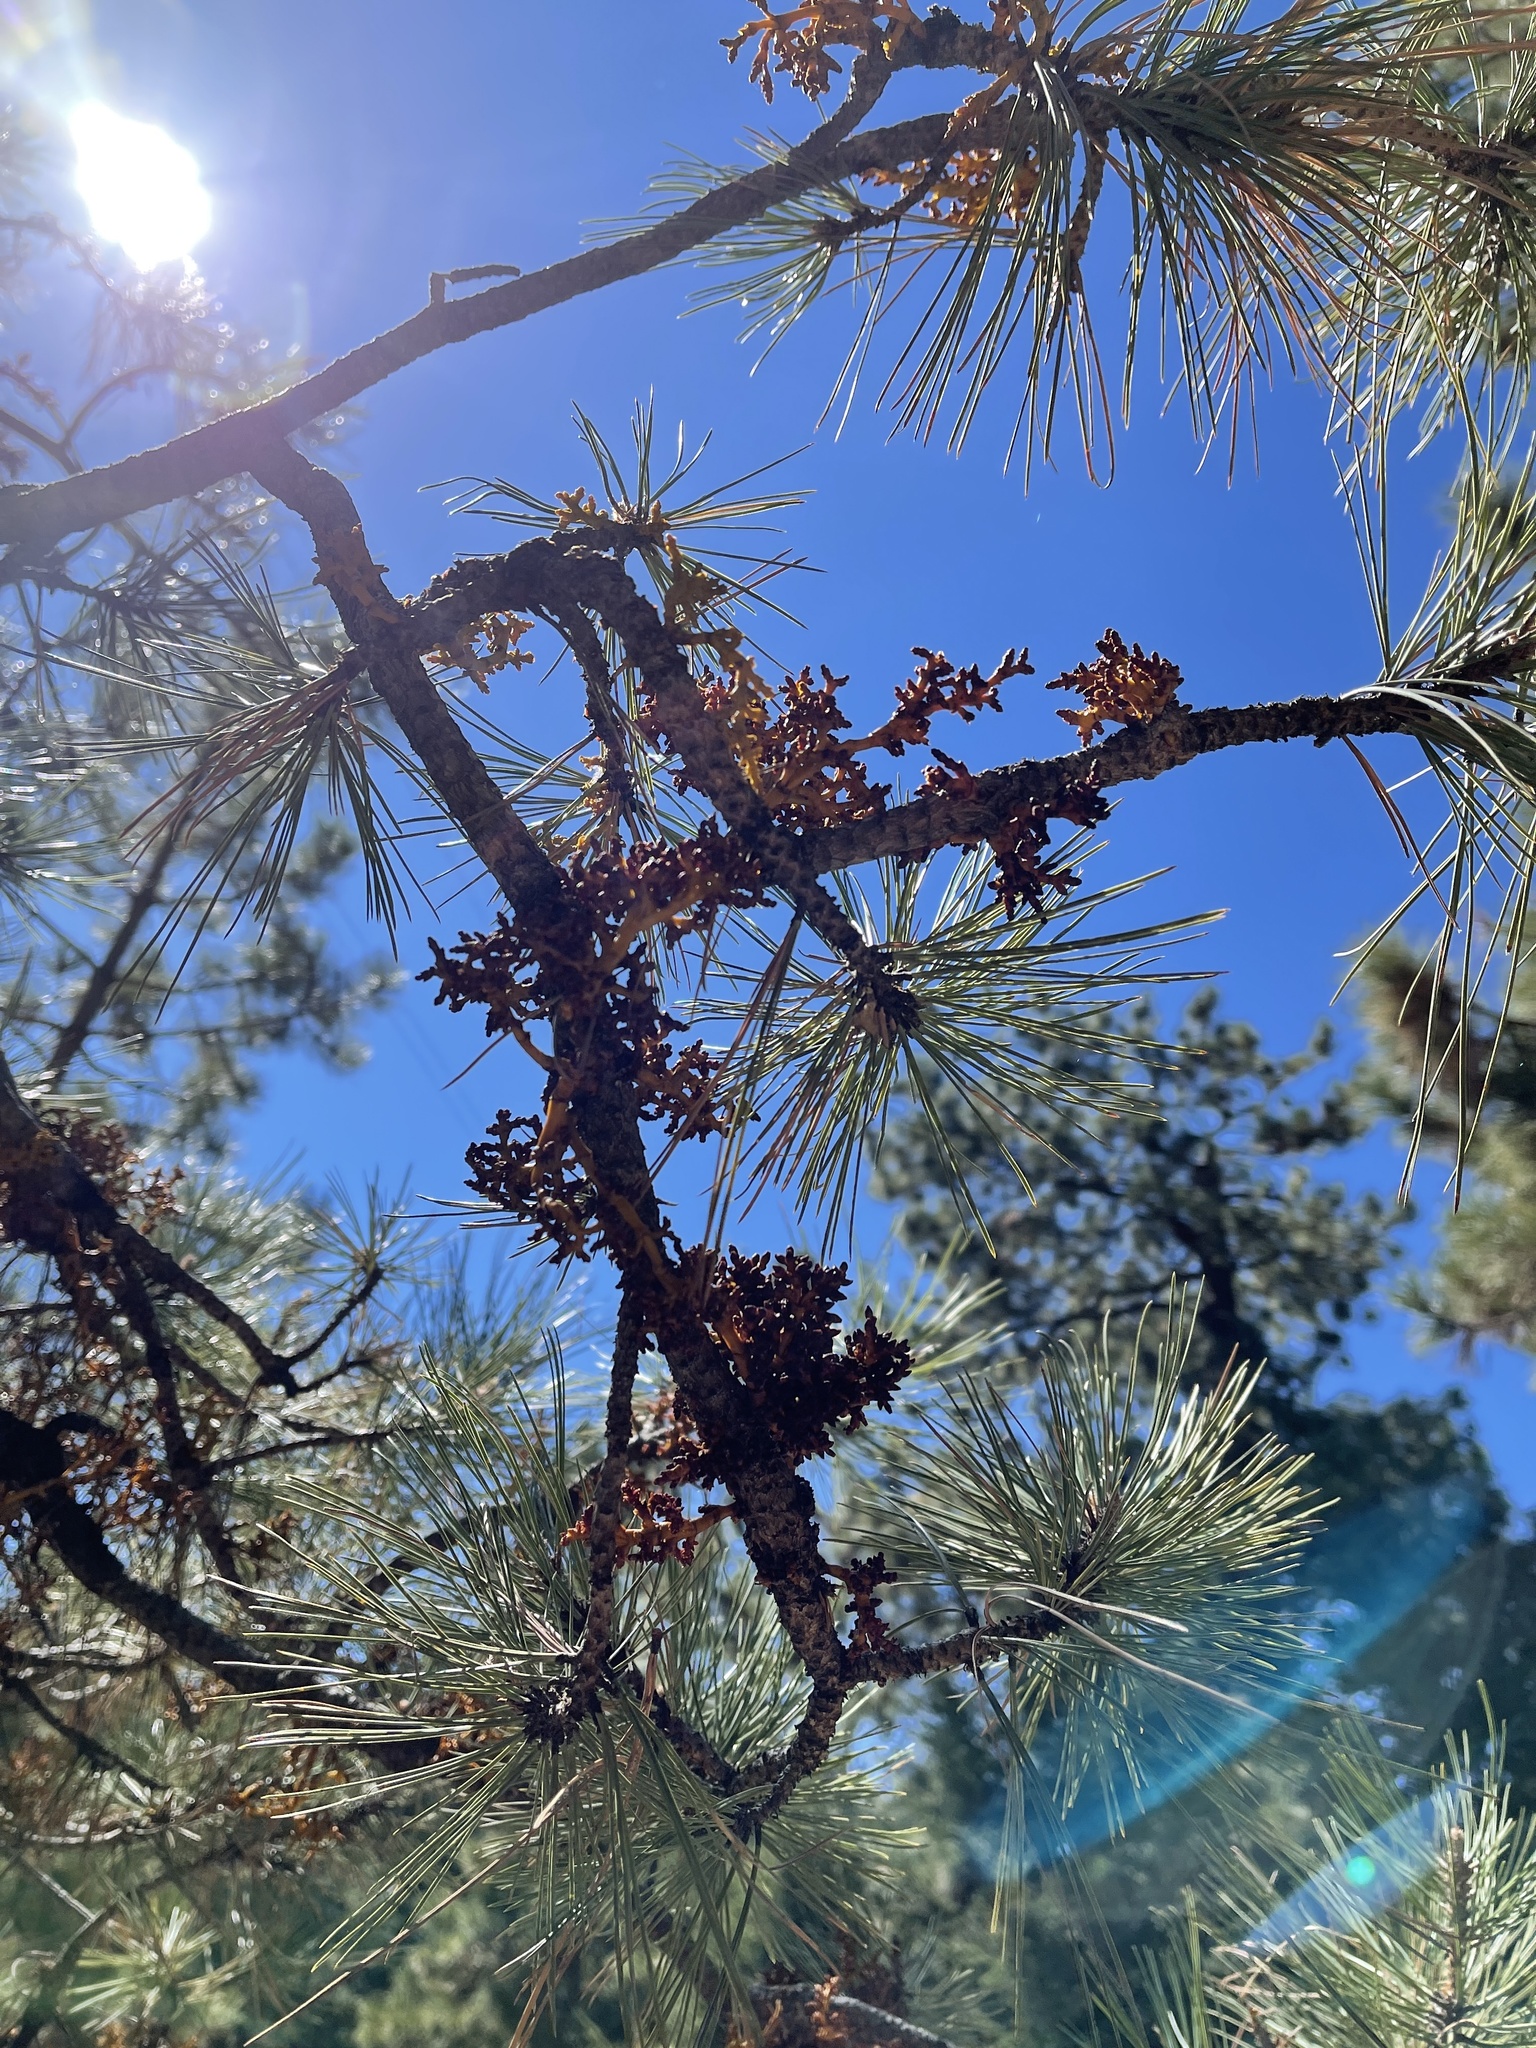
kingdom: Plantae
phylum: Tracheophyta
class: Magnoliopsida
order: Santalales
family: Viscaceae
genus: Arceuthobium
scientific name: Arceuthobium vaginatum
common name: Southwestern dwarf-mistletoe
